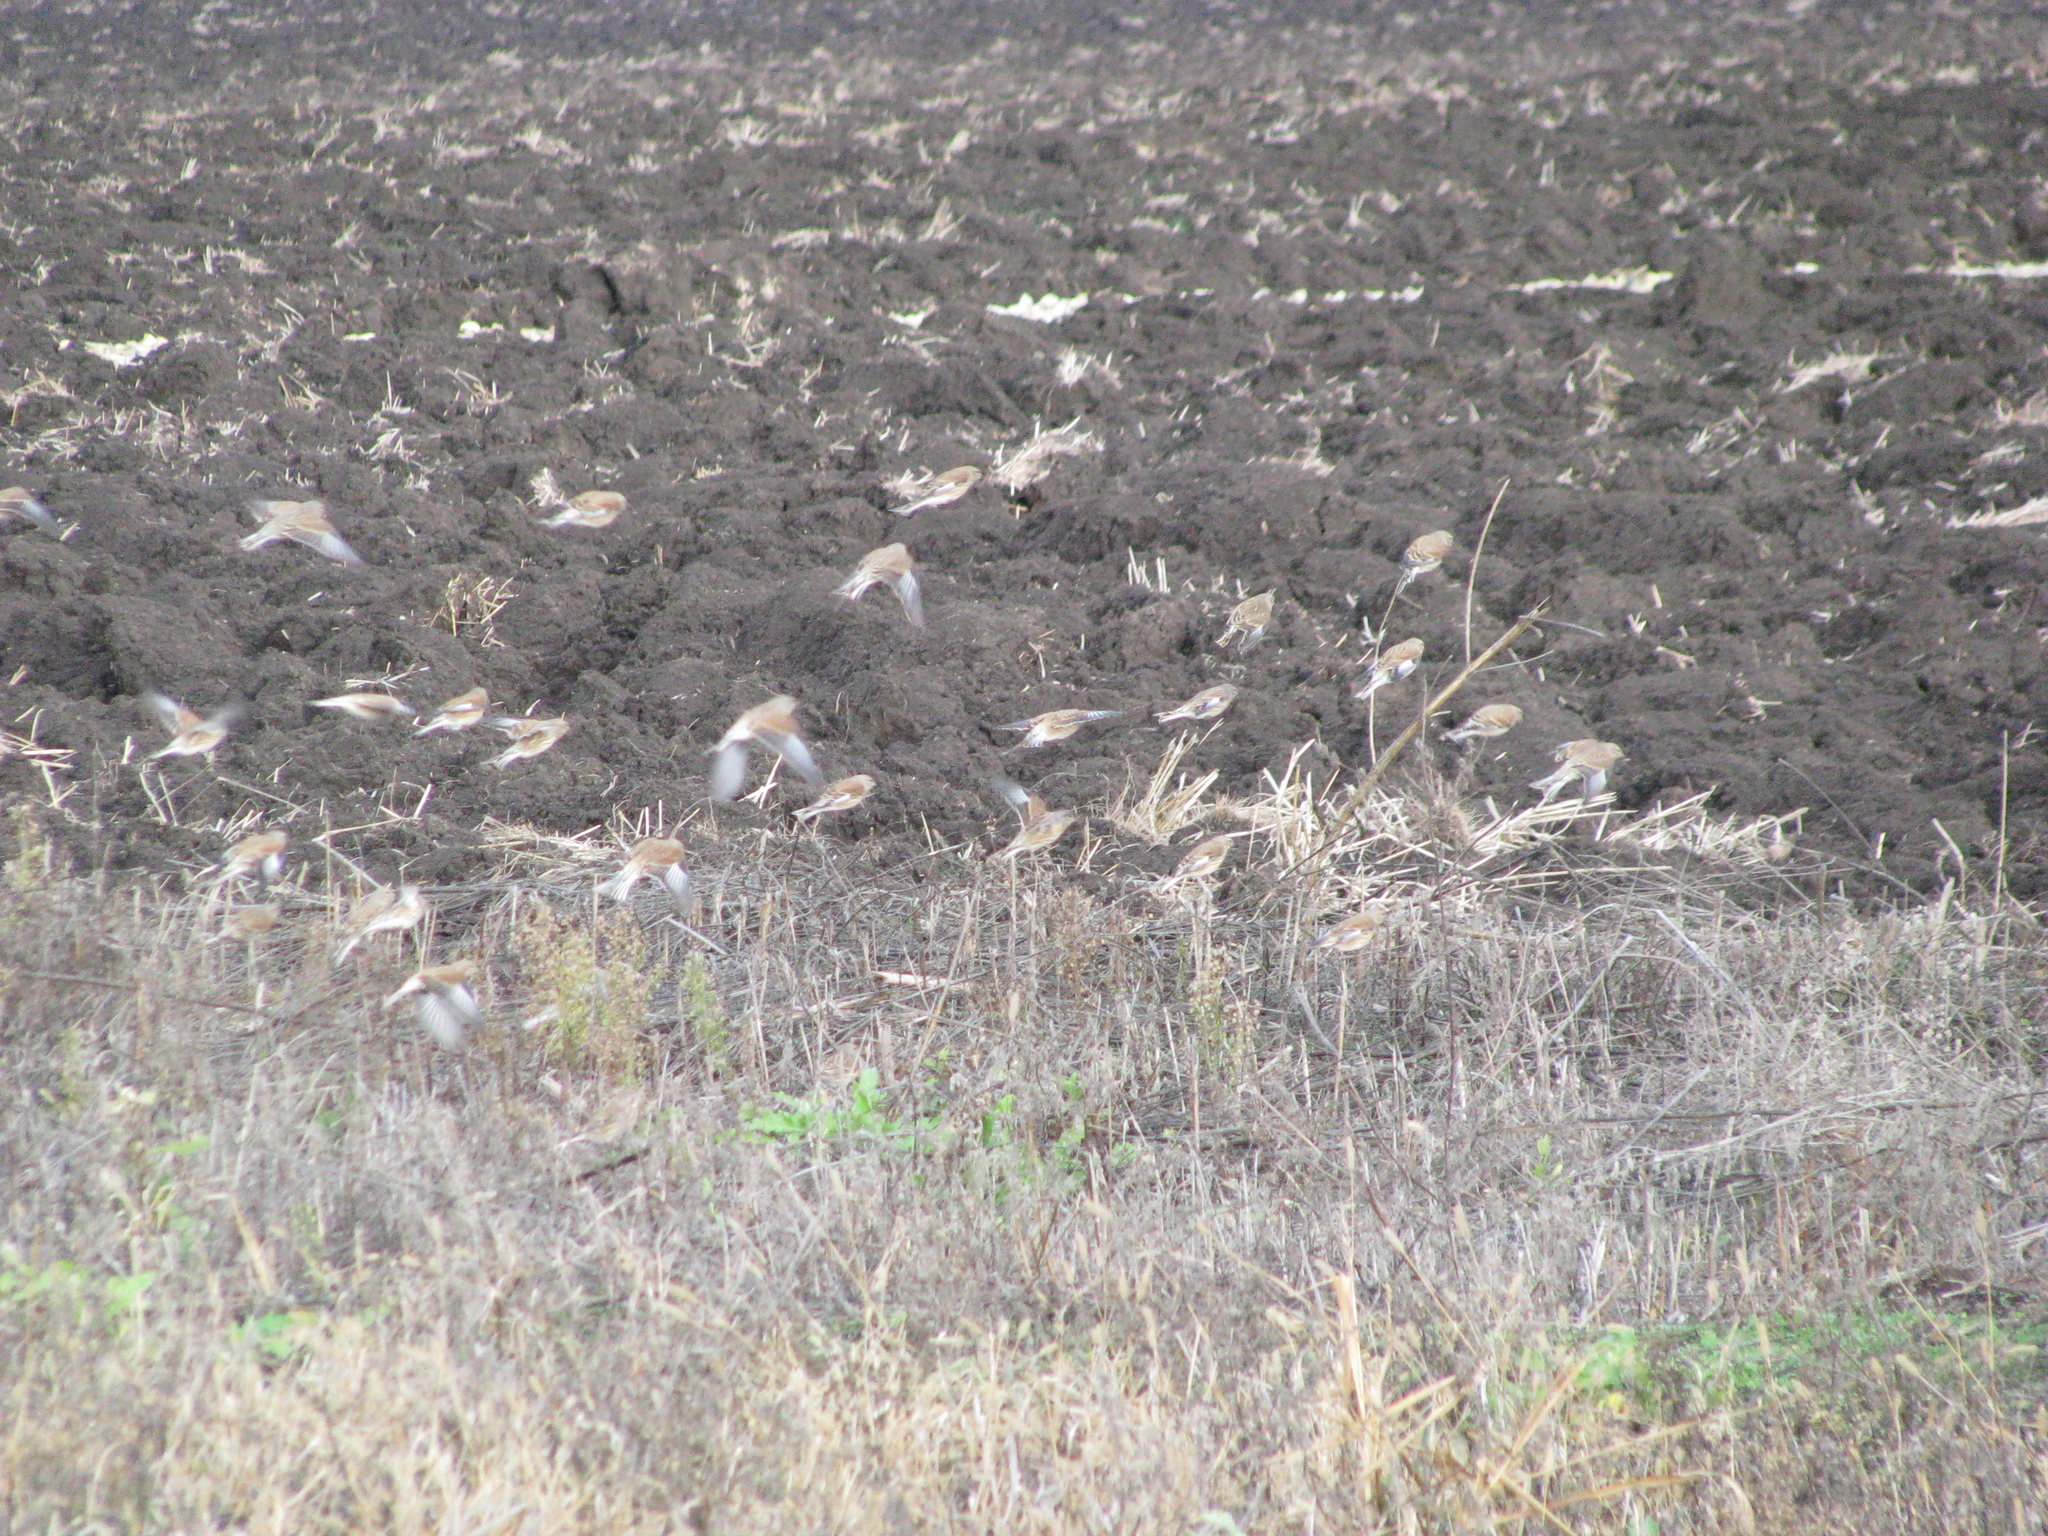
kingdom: Animalia
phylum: Chordata
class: Aves
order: Passeriformes
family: Fringillidae
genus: Linaria
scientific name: Linaria cannabina
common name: Common linnet
